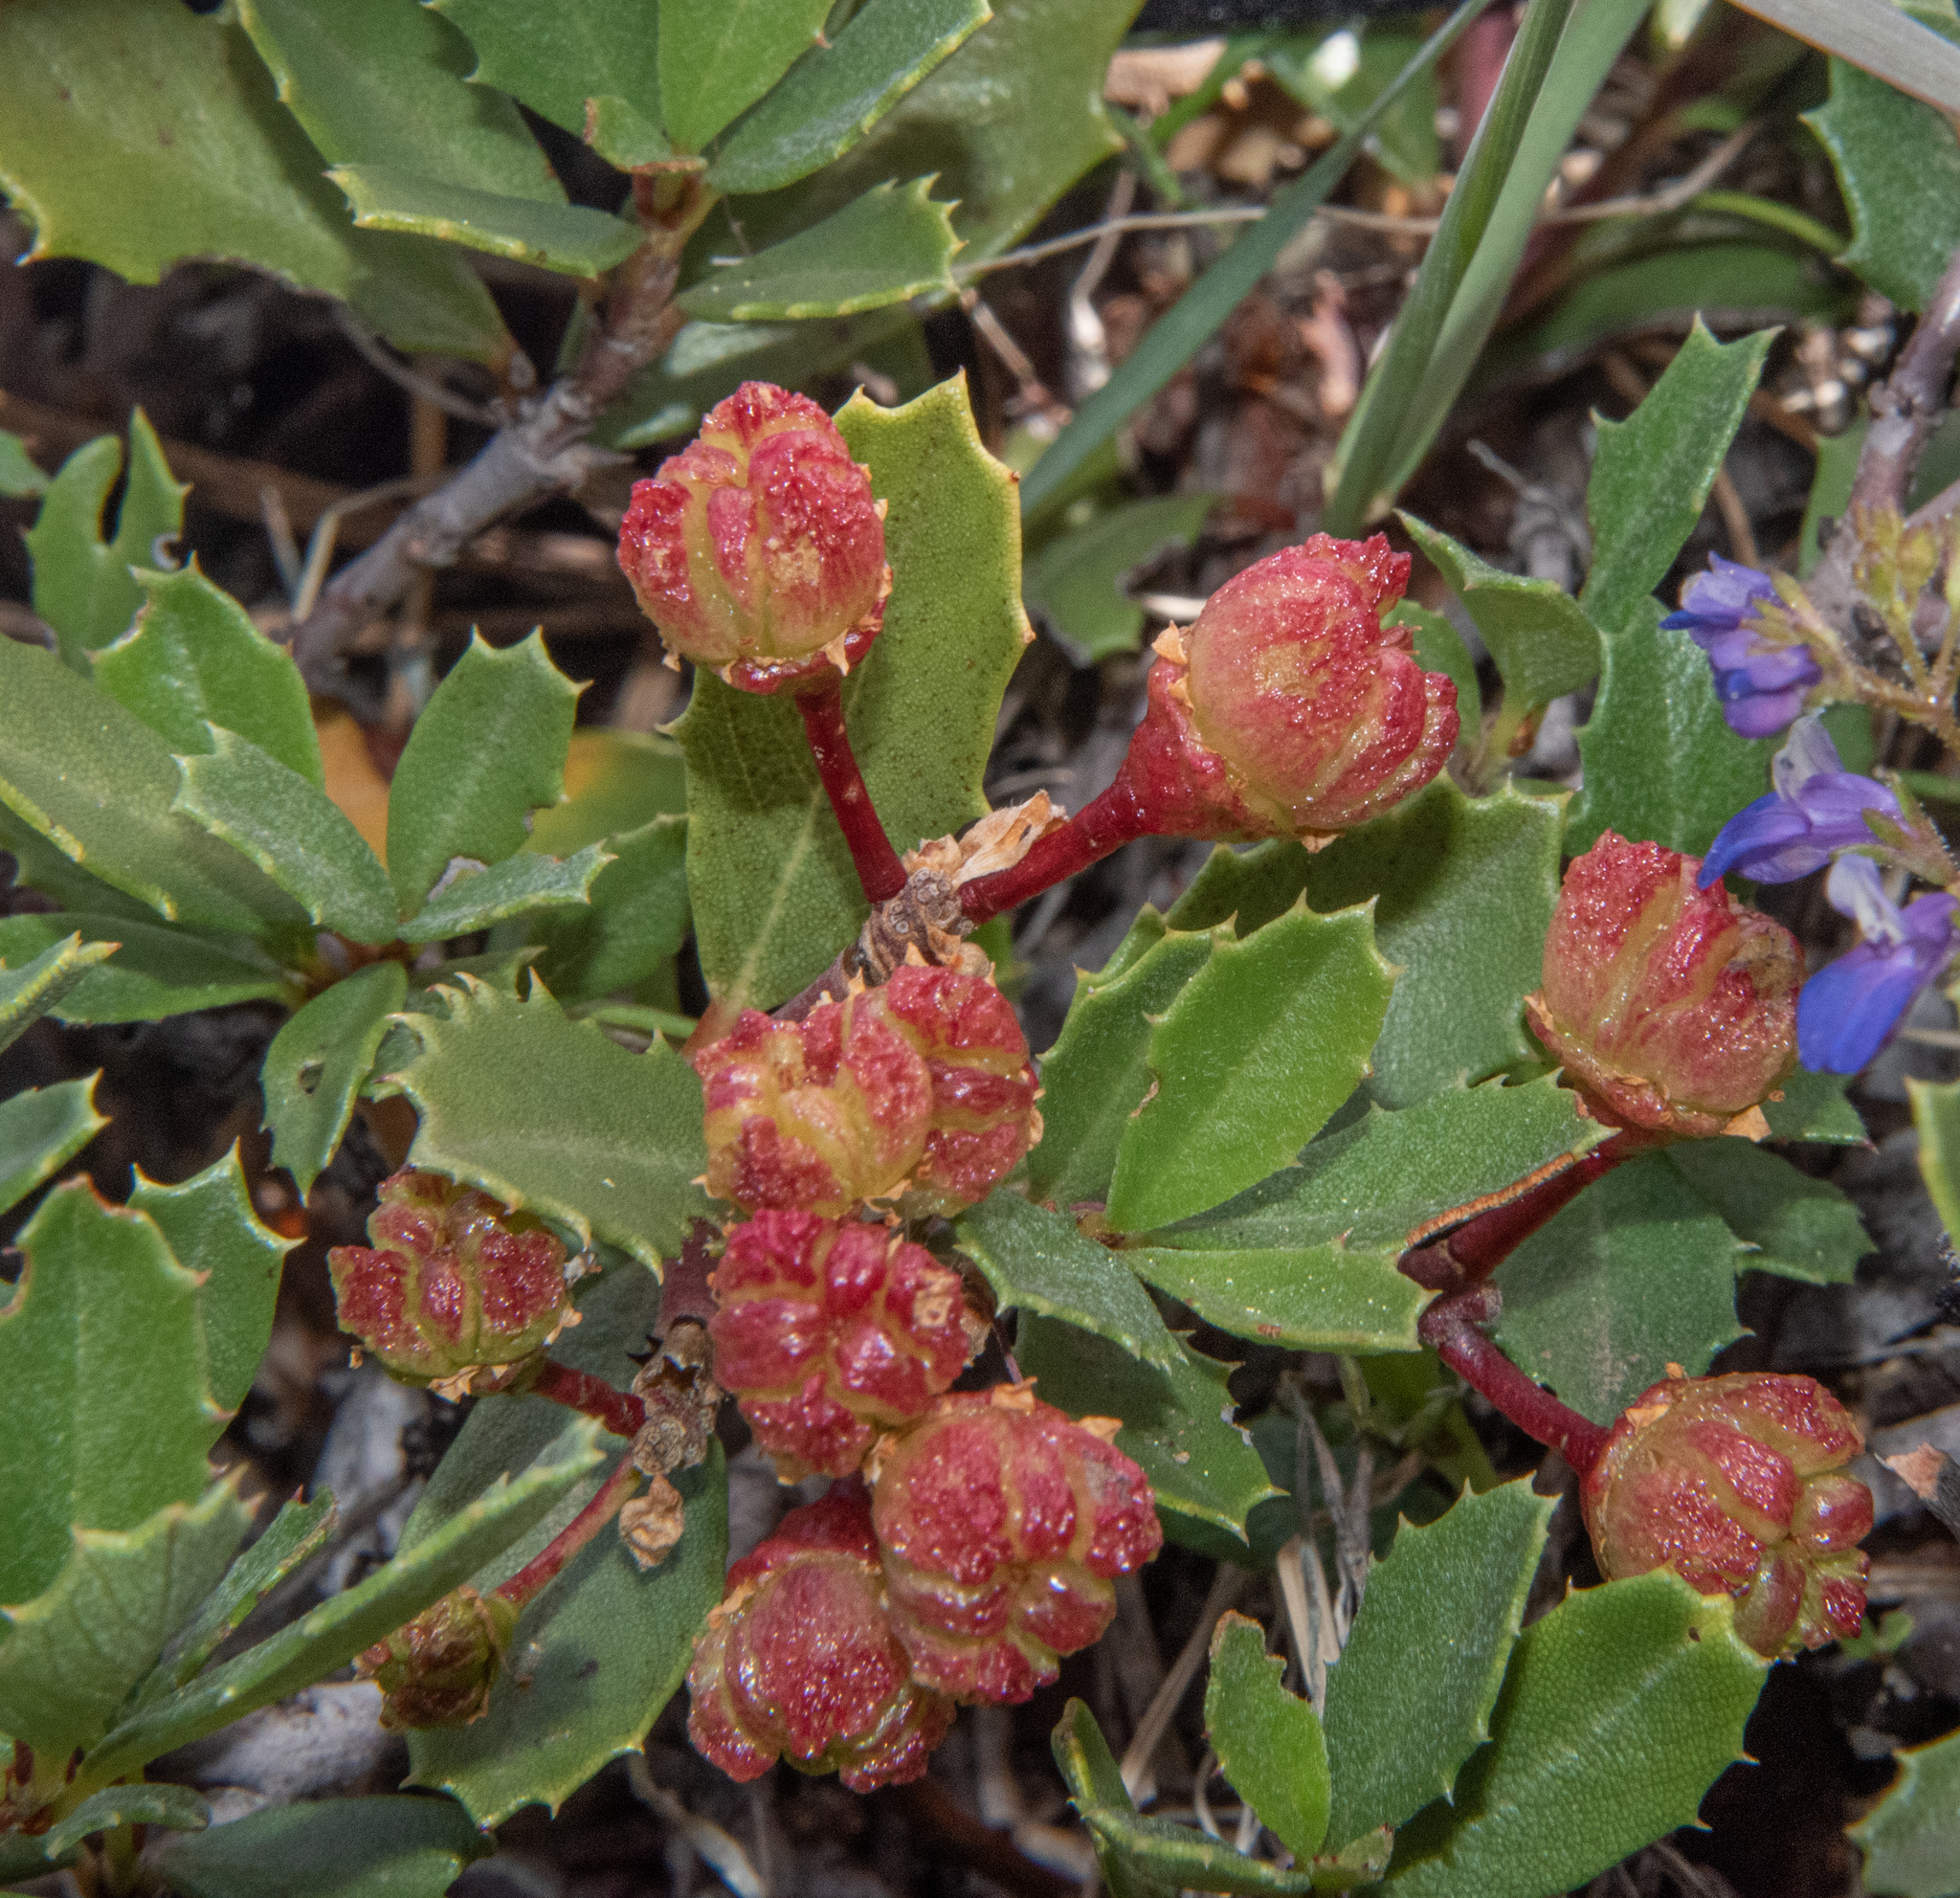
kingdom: Plantae
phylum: Tracheophyta
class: Magnoliopsida
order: Rosales
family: Rhamnaceae
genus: Ceanothus
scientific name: Ceanothus prostratus
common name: Mahala-mat
